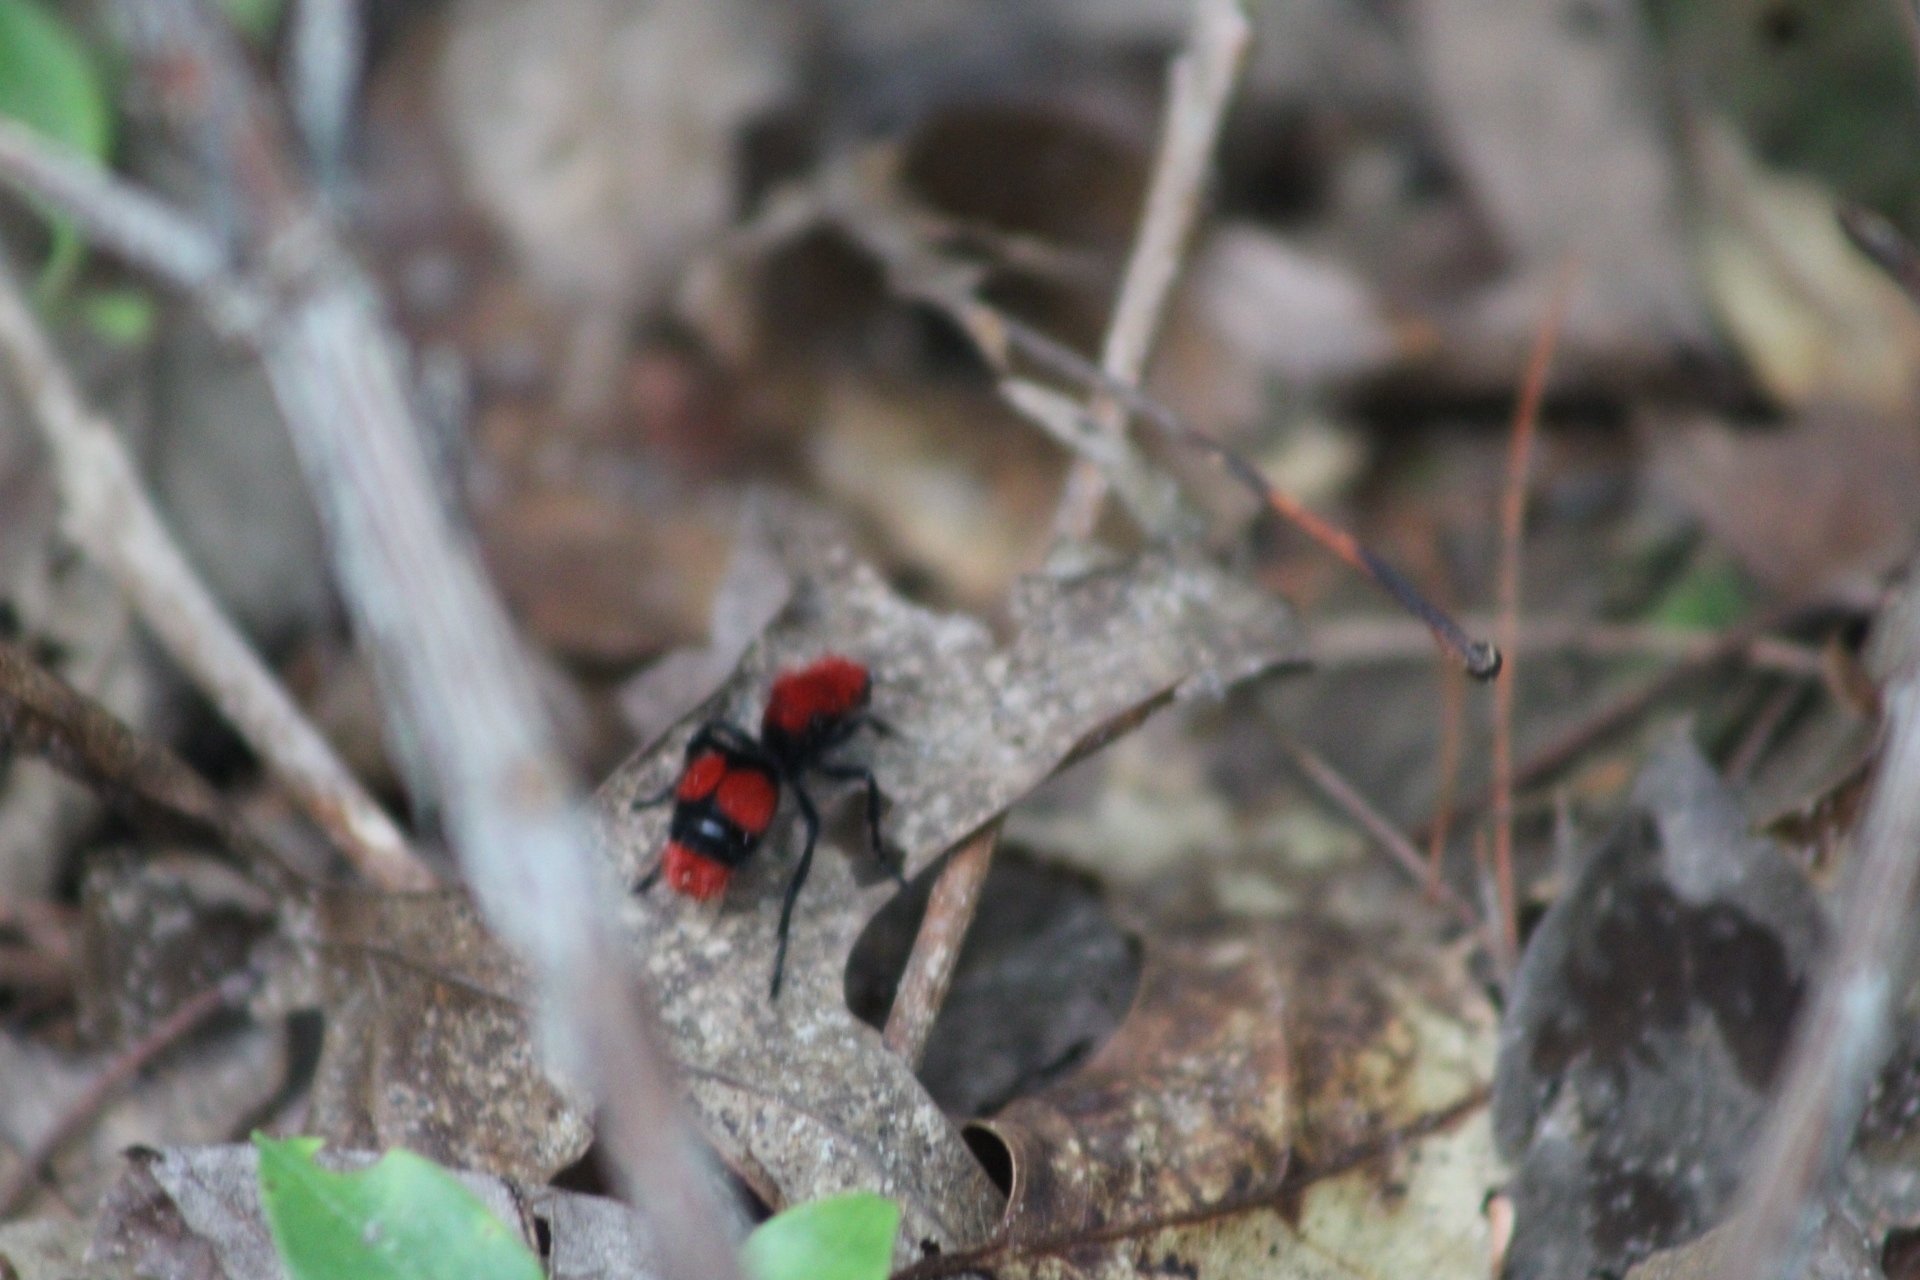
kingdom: Animalia
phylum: Arthropoda
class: Insecta
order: Hymenoptera
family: Mutillidae
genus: Dasymutilla
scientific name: Dasymutilla occidentalis
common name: Common eastern velvet ant
